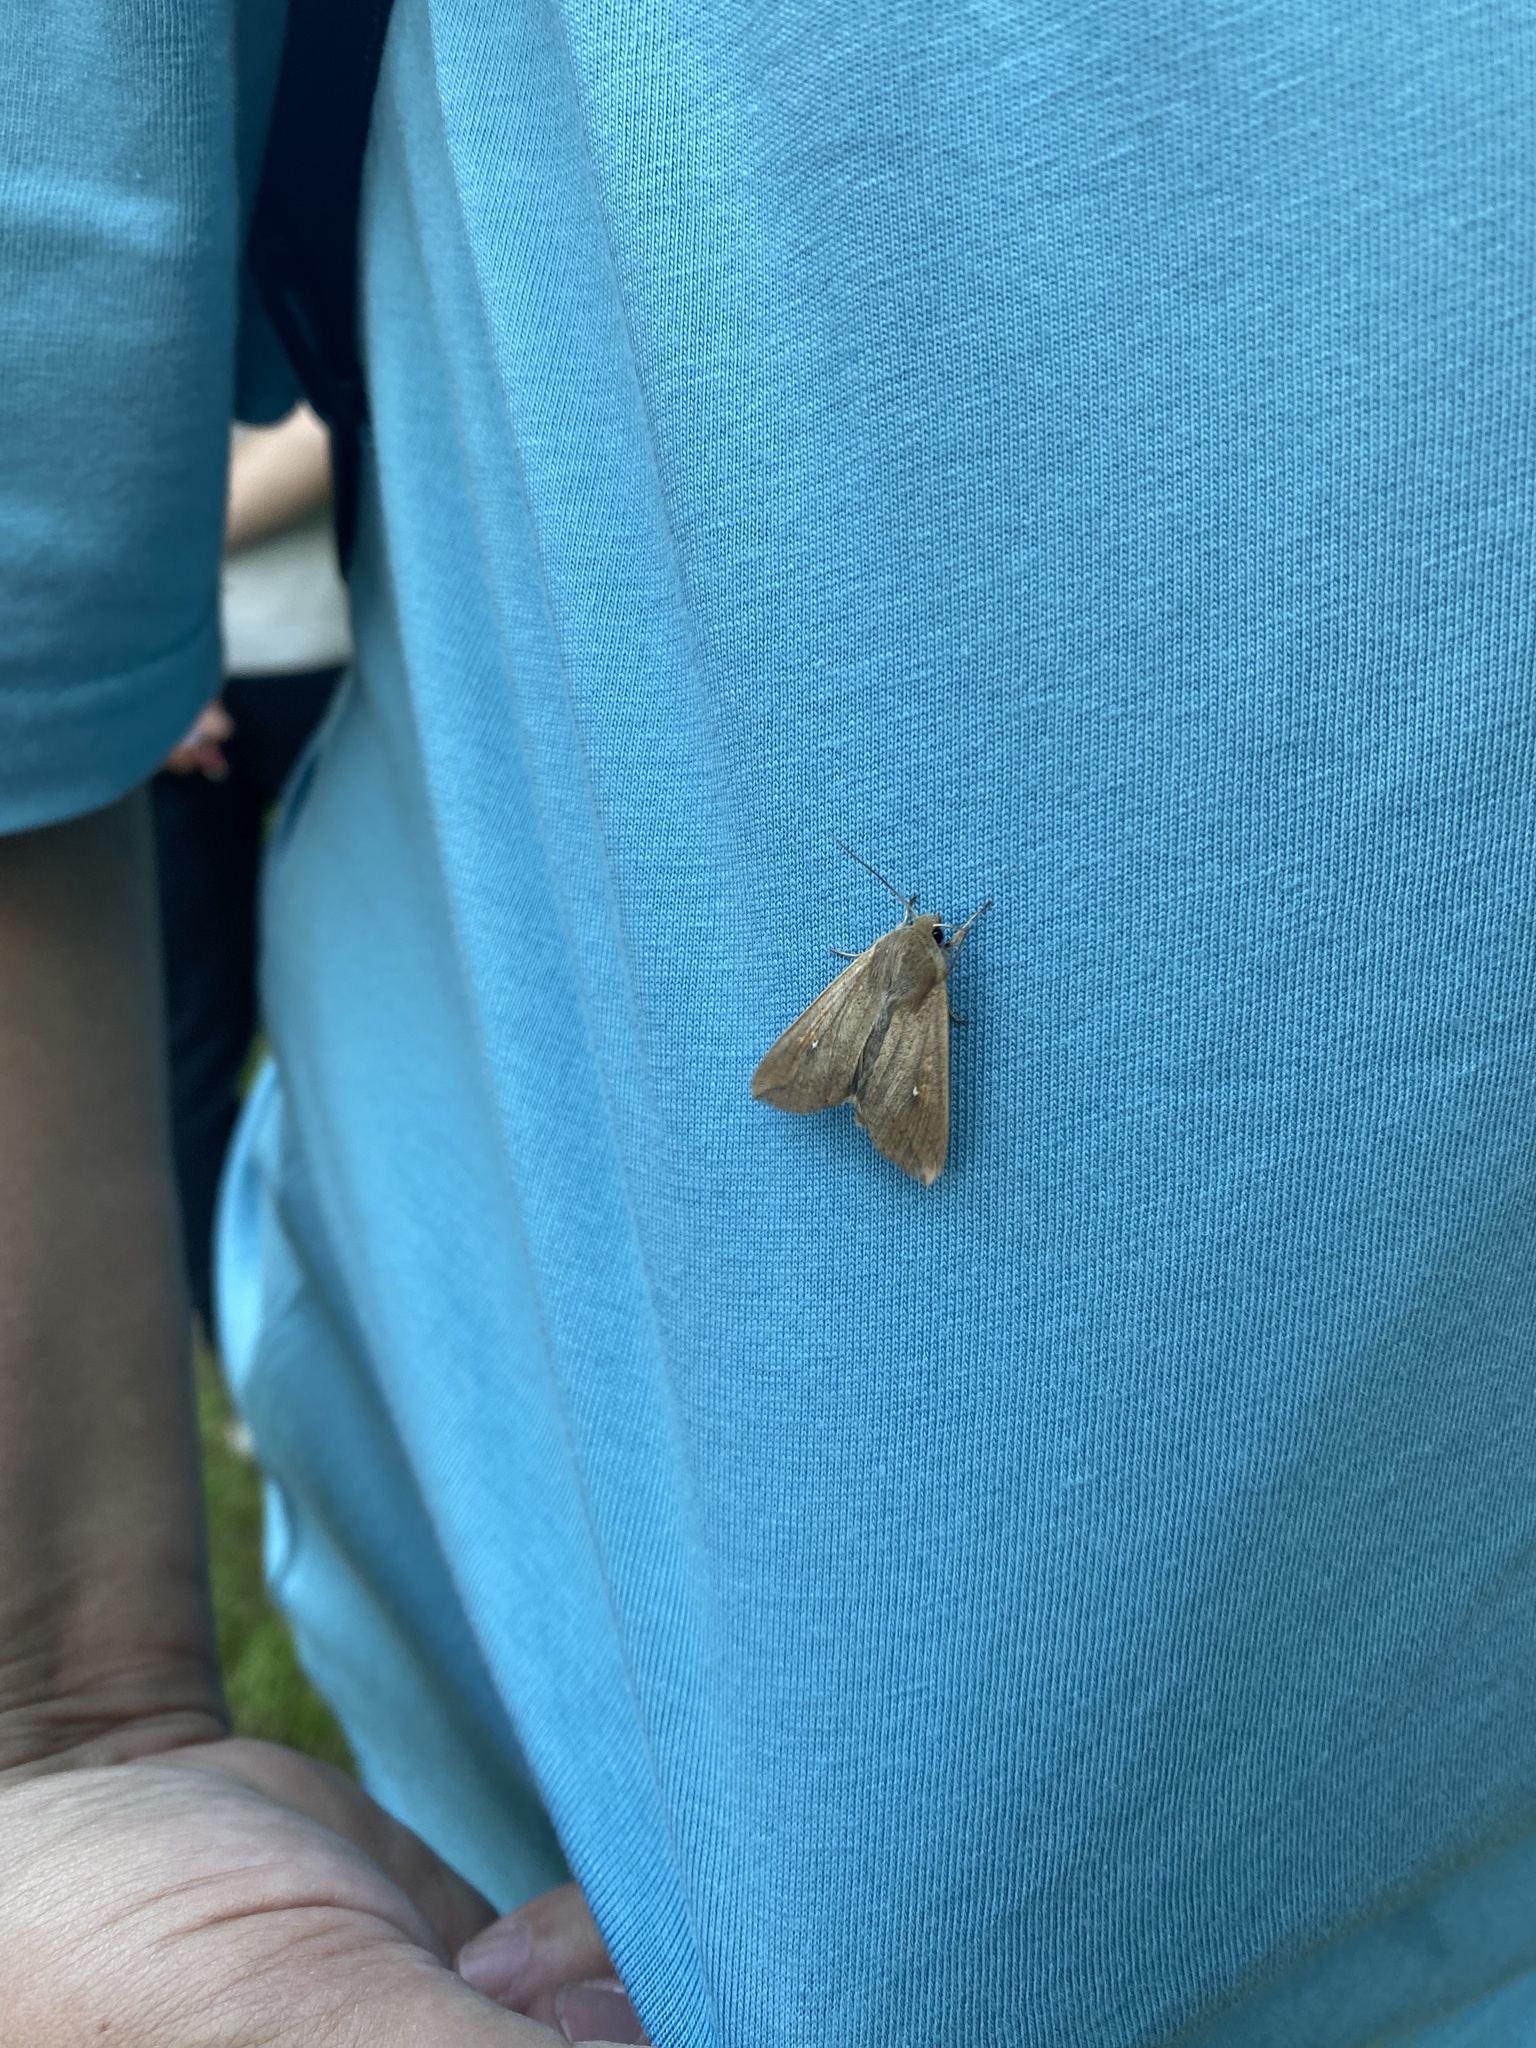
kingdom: Animalia
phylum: Arthropoda
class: Insecta
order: Lepidoptera
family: Noctuidae
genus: Mythimna
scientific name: Mythimna unipuncta
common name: White-speck
